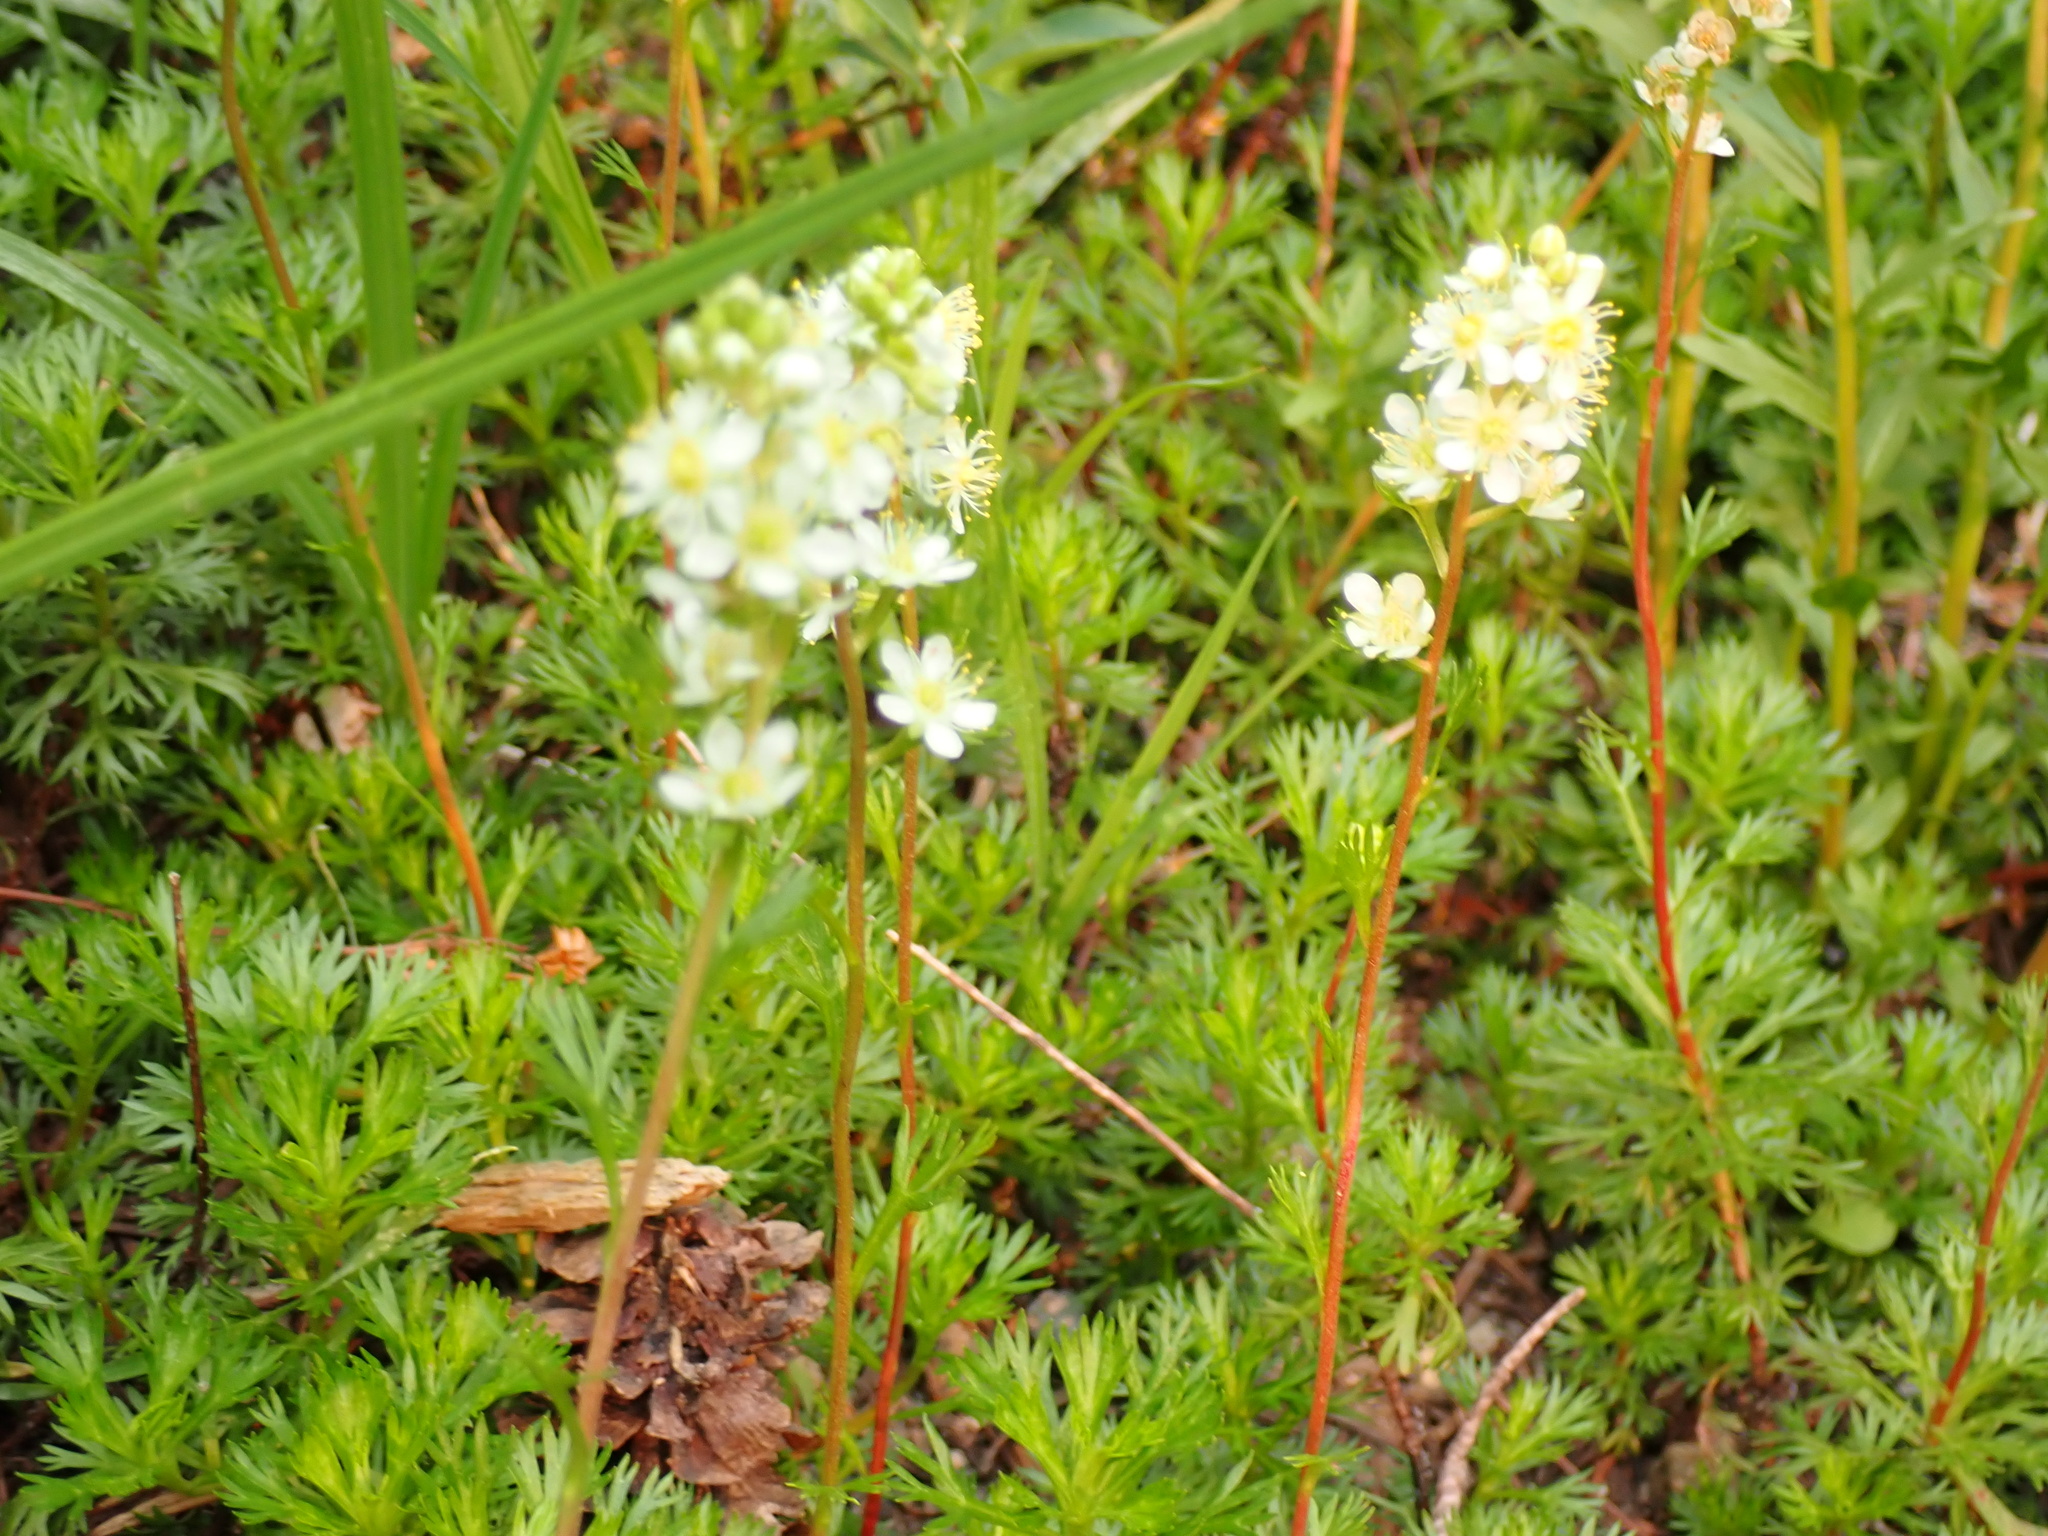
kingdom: Plantae
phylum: Tracheophyta
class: Magnoliopsida
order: Rosales
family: Rosaceae
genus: Luetkea
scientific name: Luetkea pectinata
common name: Partridgefoot
